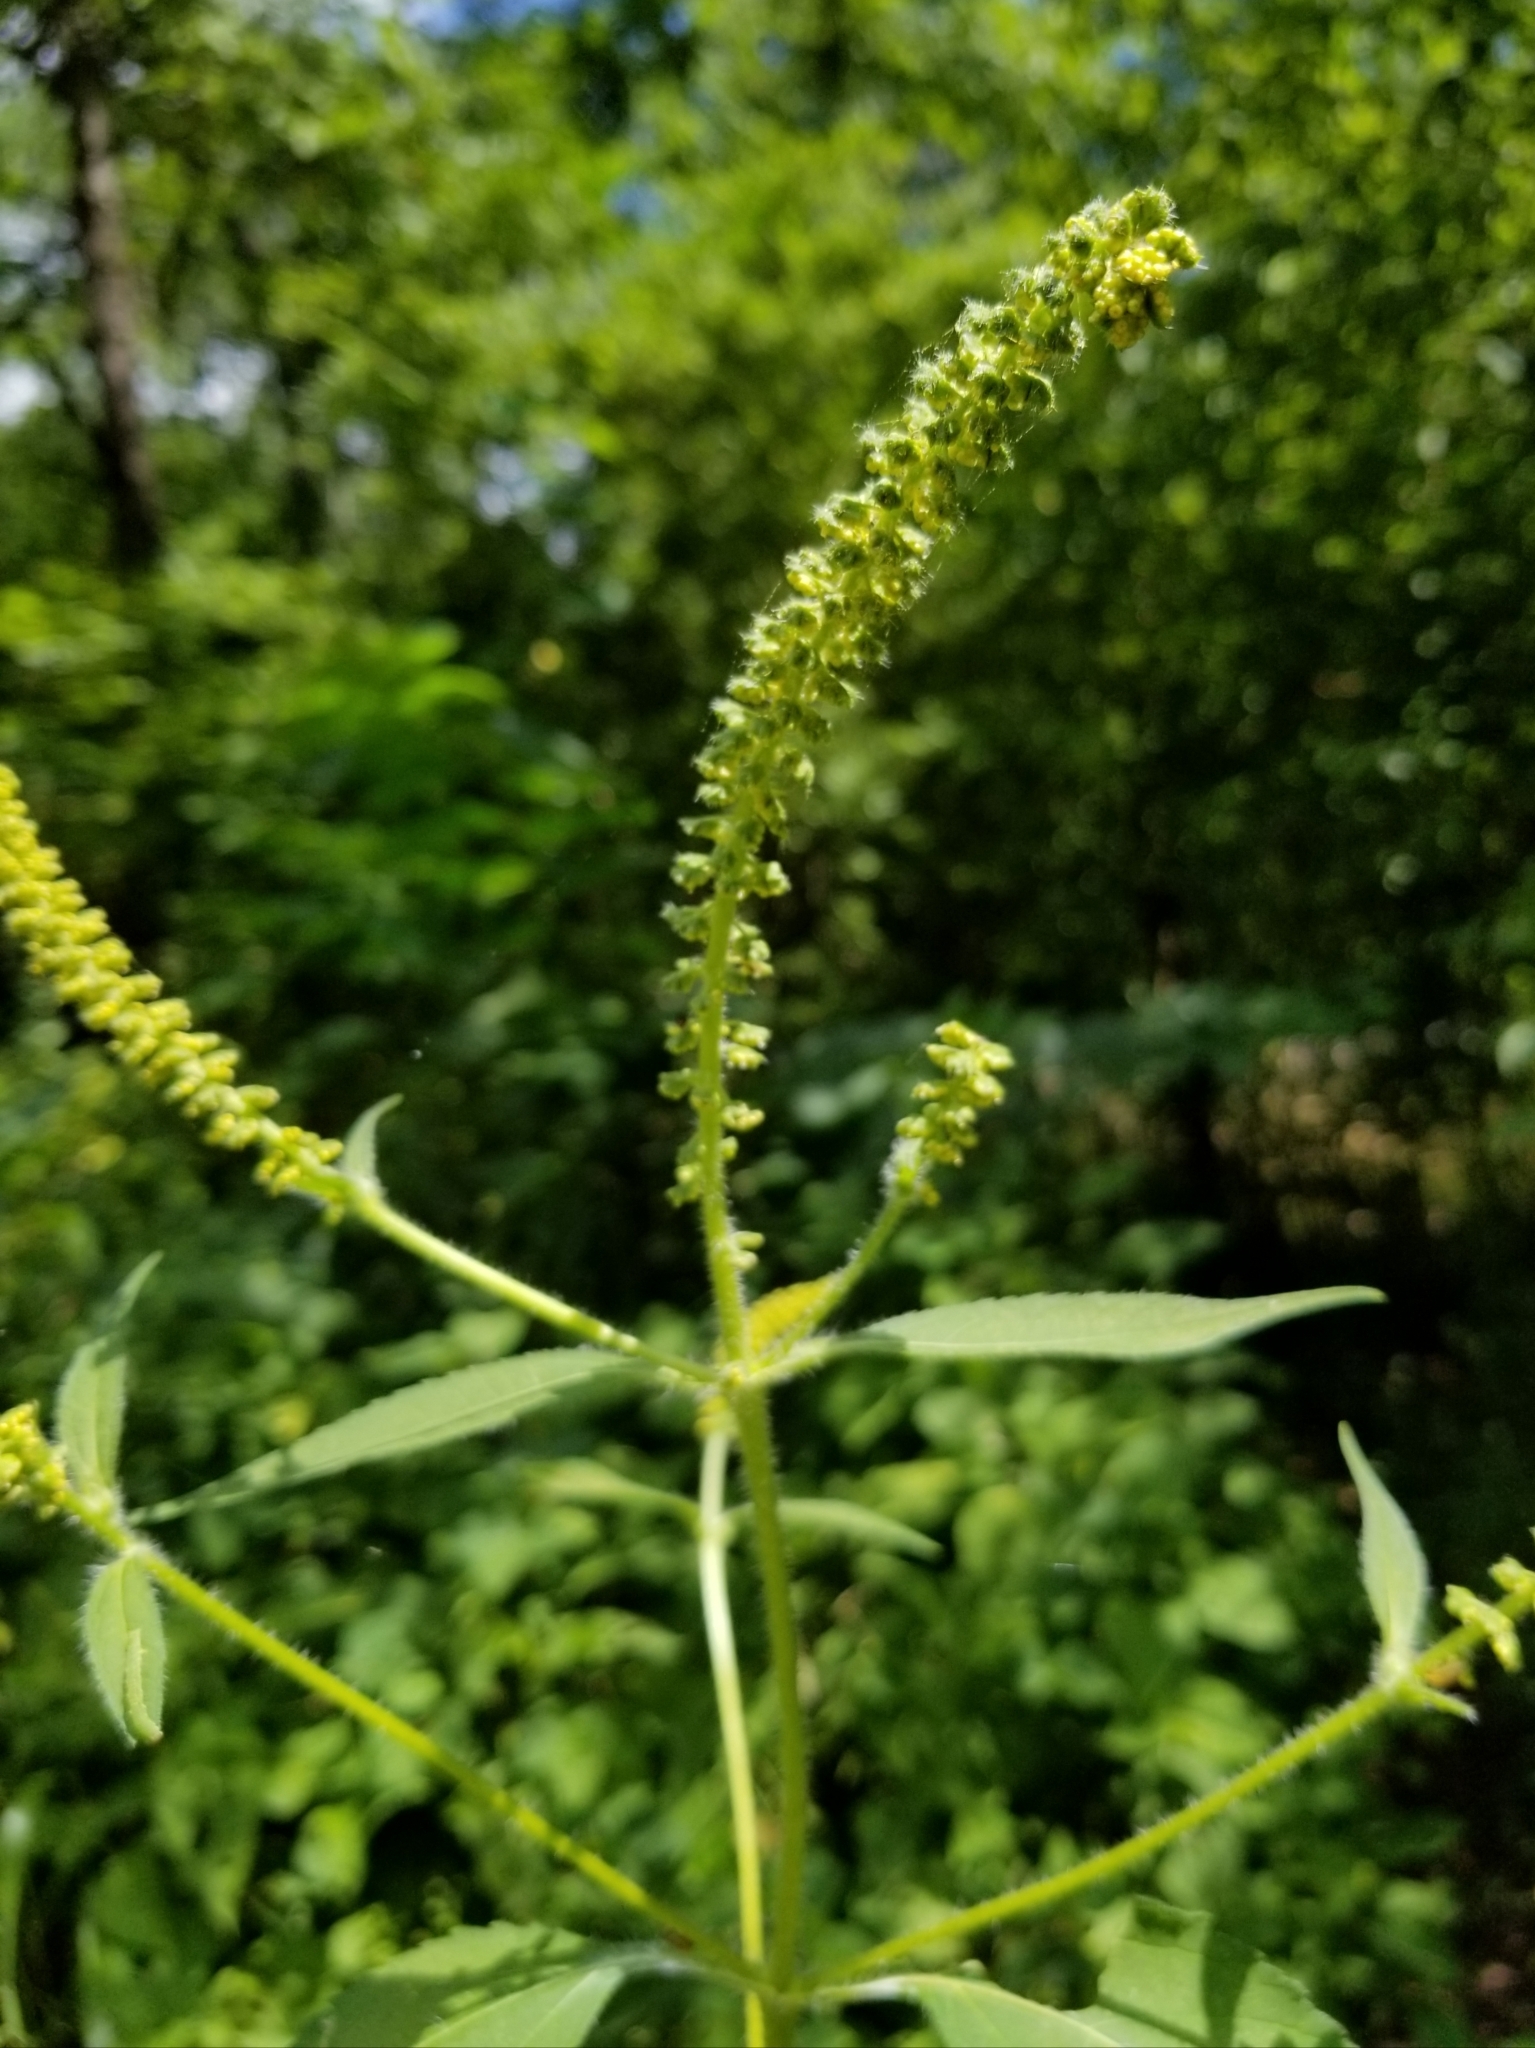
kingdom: Plantae
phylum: Tracheophyta
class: Magnoliopsida
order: Asterales
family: Asteraceae
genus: Ambrosia
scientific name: Ambrosia trifida
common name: Giant ragweed
